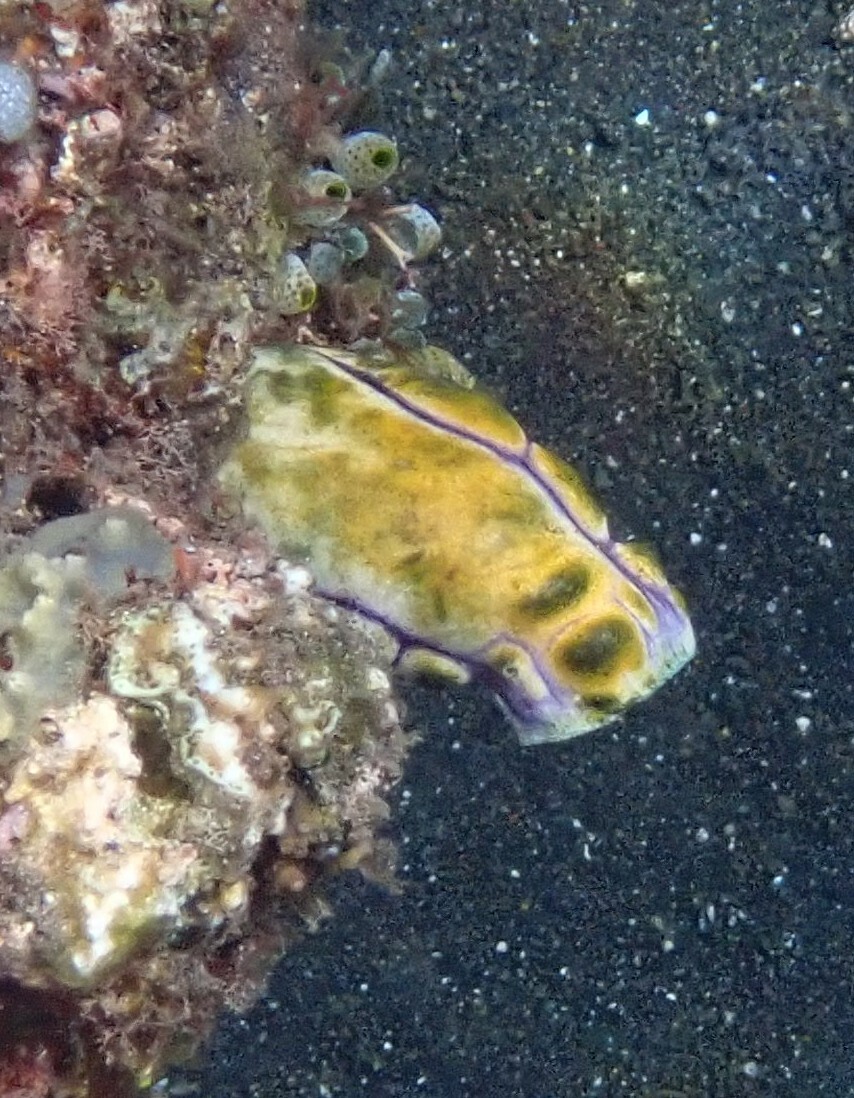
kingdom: Animalia
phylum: Chordata
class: Ascidiacea
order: Stolidobranchia
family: Styelidae
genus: Polycarpa
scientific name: Polycarpa aurata
